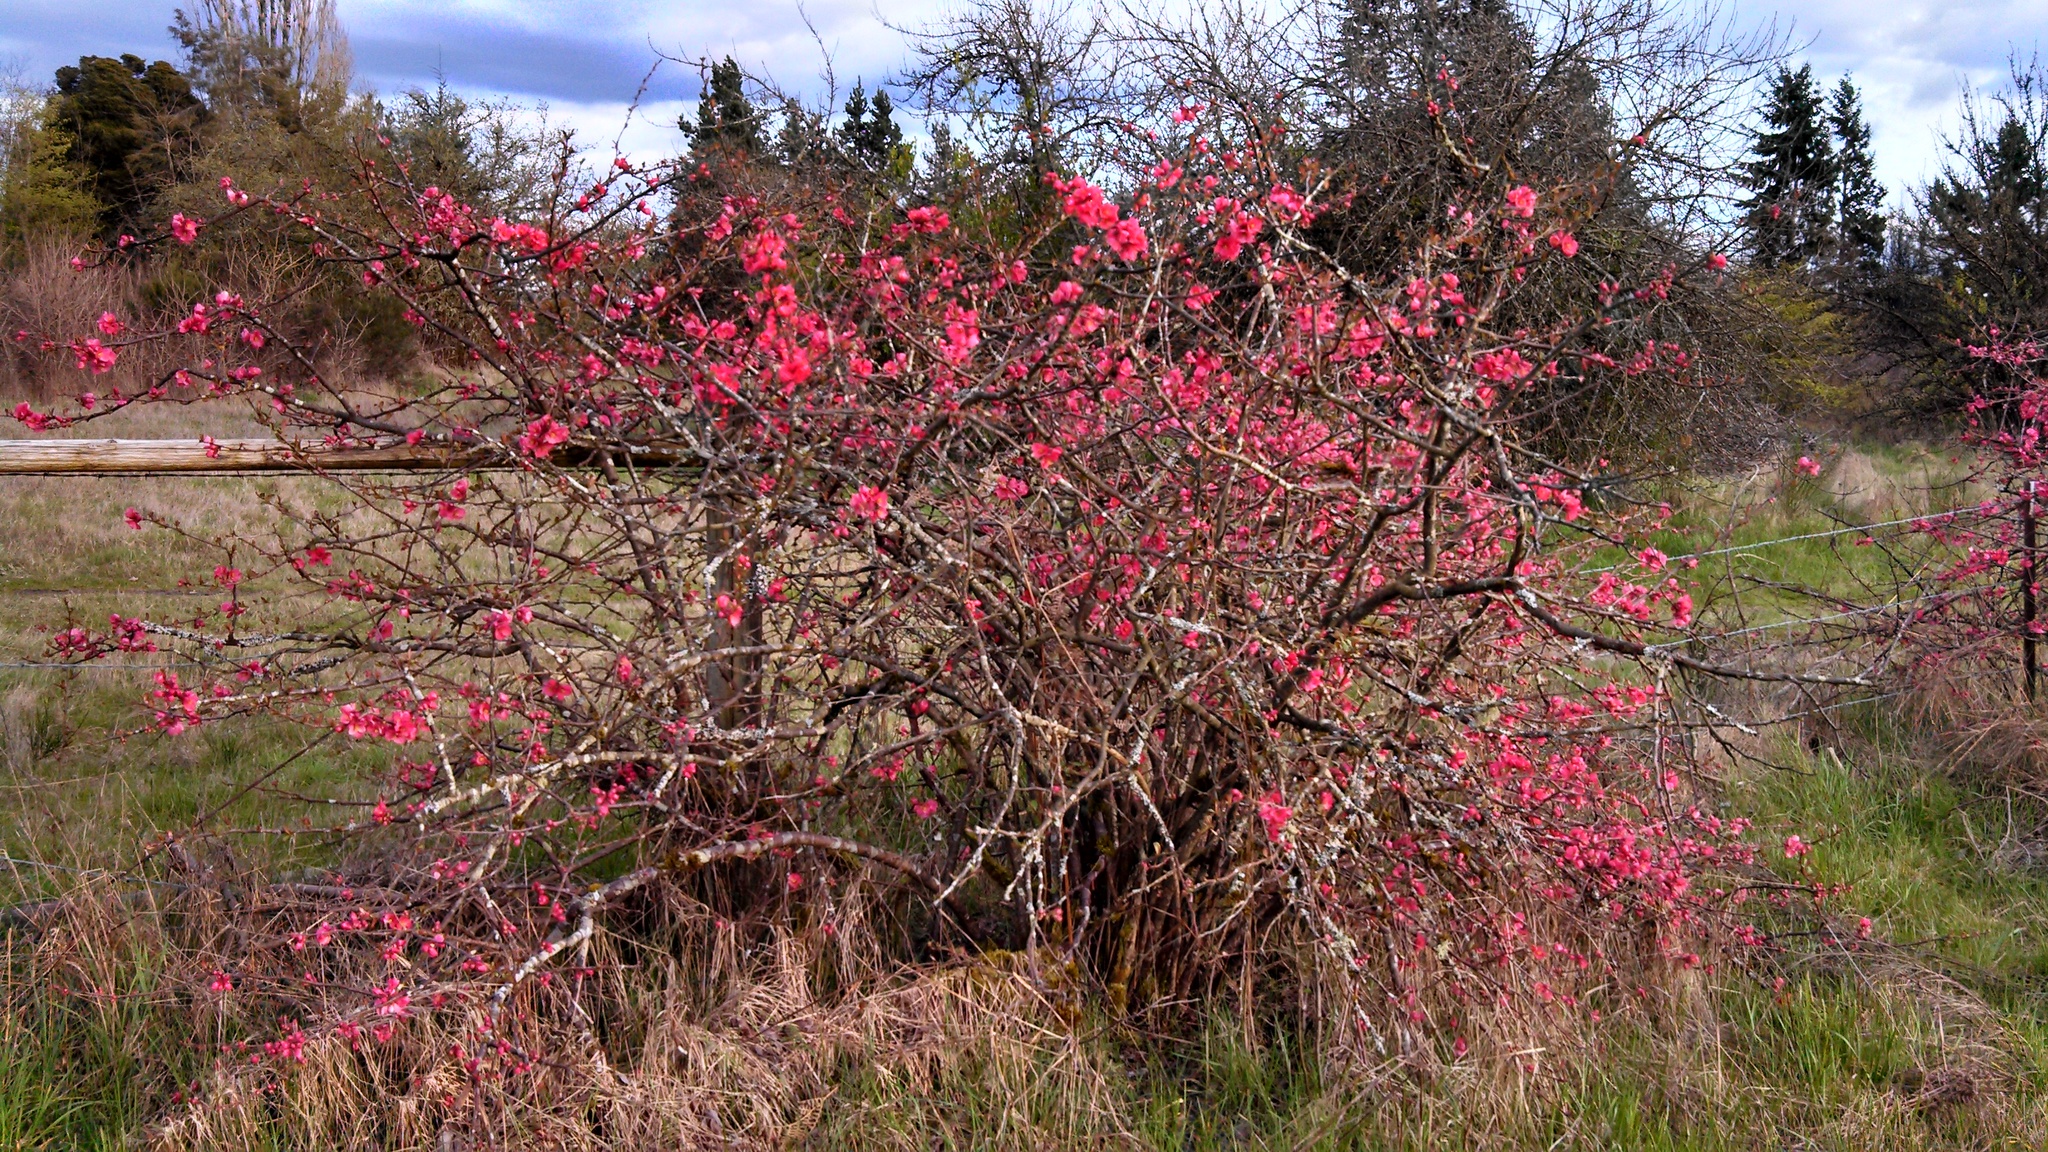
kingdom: Plantae
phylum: Tracheophyta
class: Magnoliopsida
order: Rosales
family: Rosaceae
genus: Chaenomeles
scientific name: Chaenomeles speciosa
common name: Japanese quince
